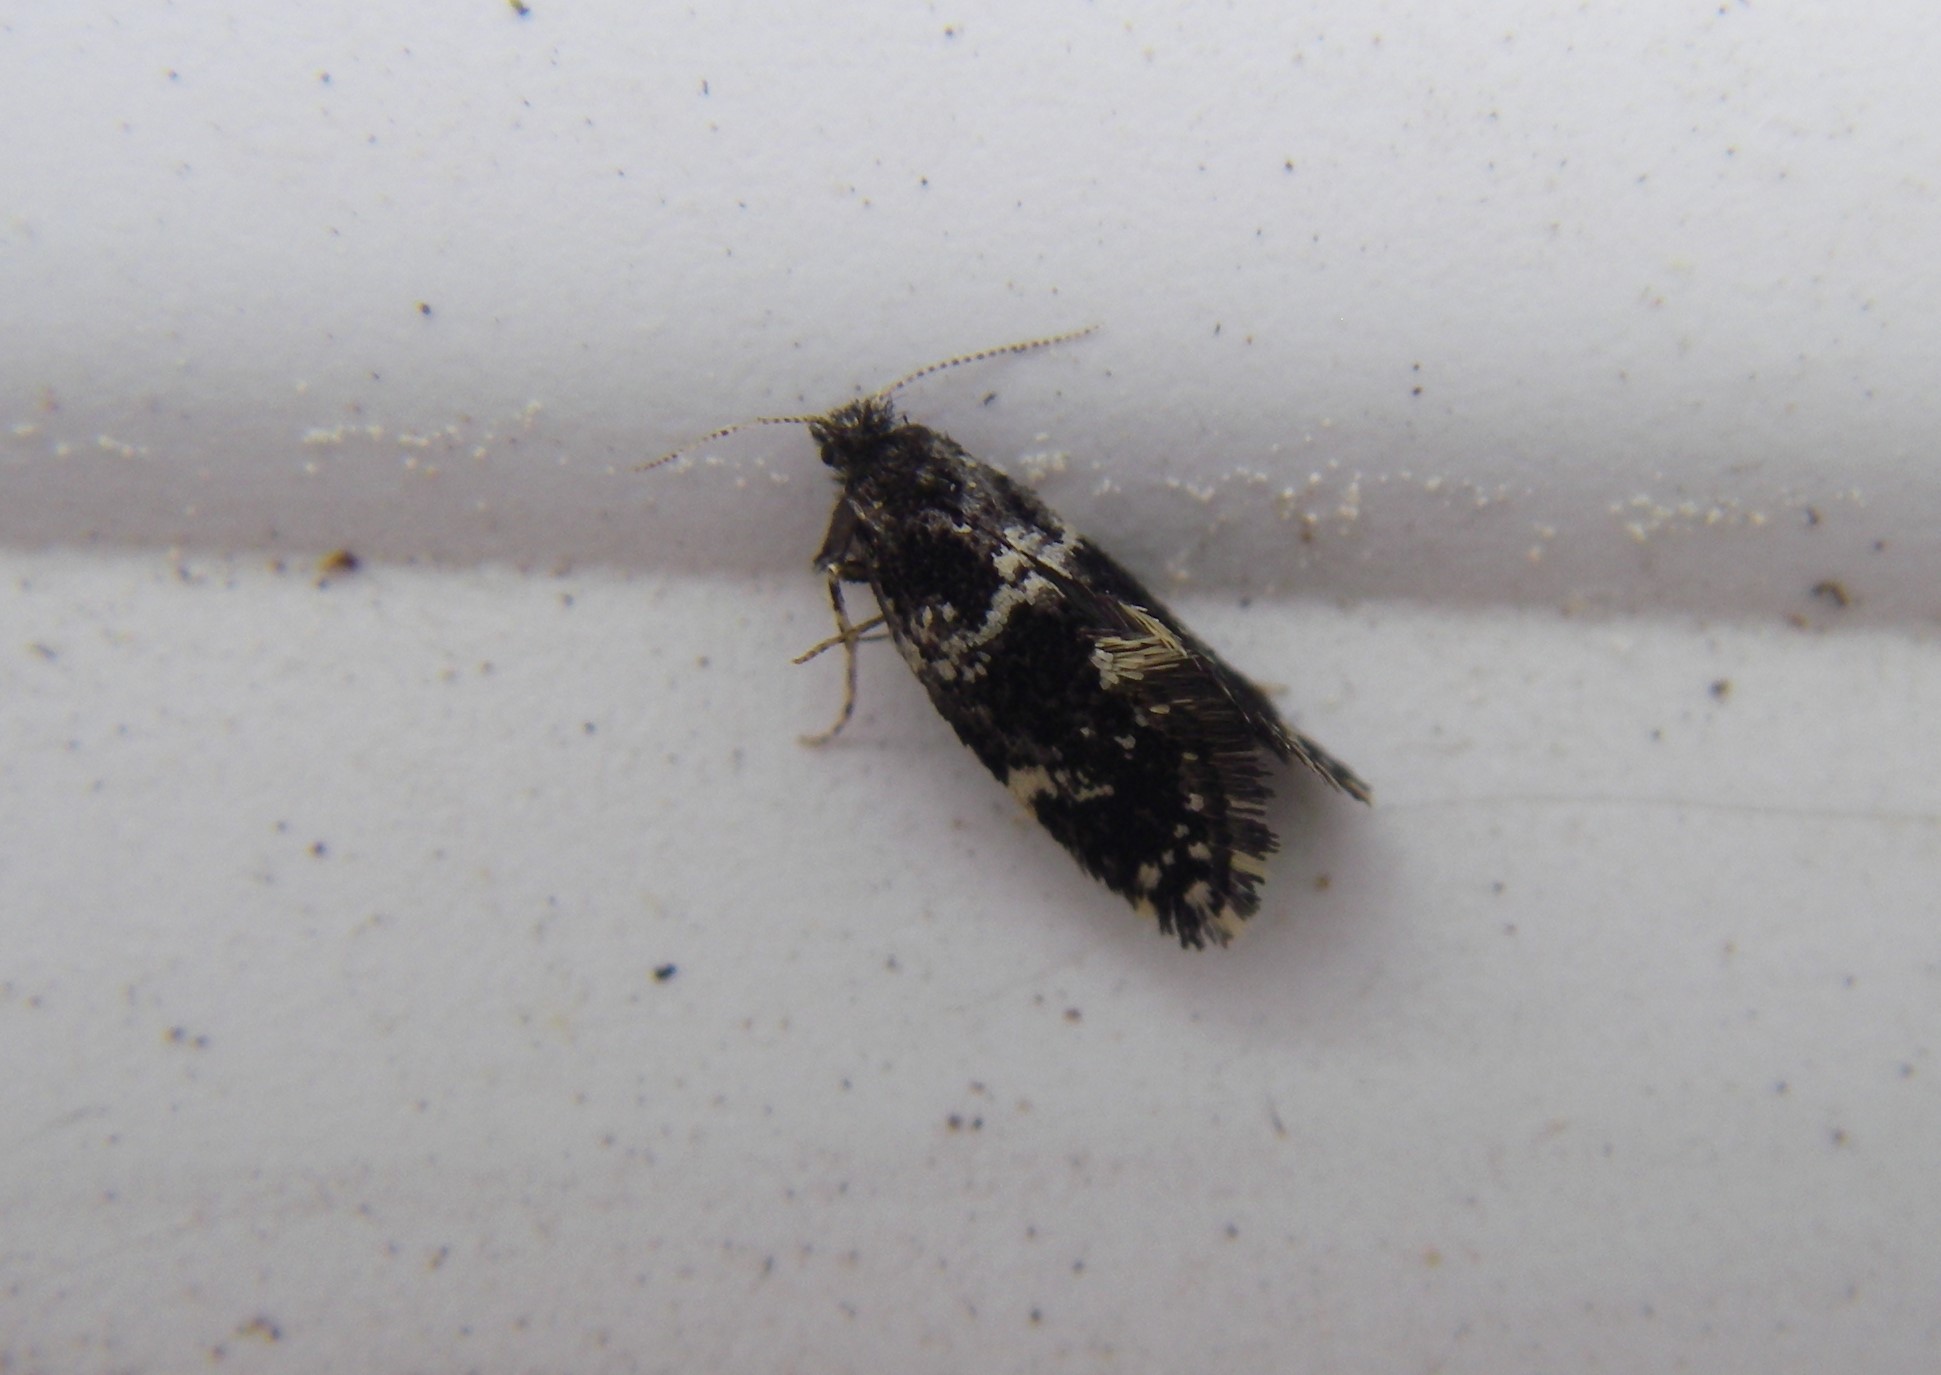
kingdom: Animalia
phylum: Arthropoda
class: Insecta
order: Lepidoptera
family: Psychidae
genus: Narycia
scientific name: Narycia duplicella
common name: White-speckled smoke
